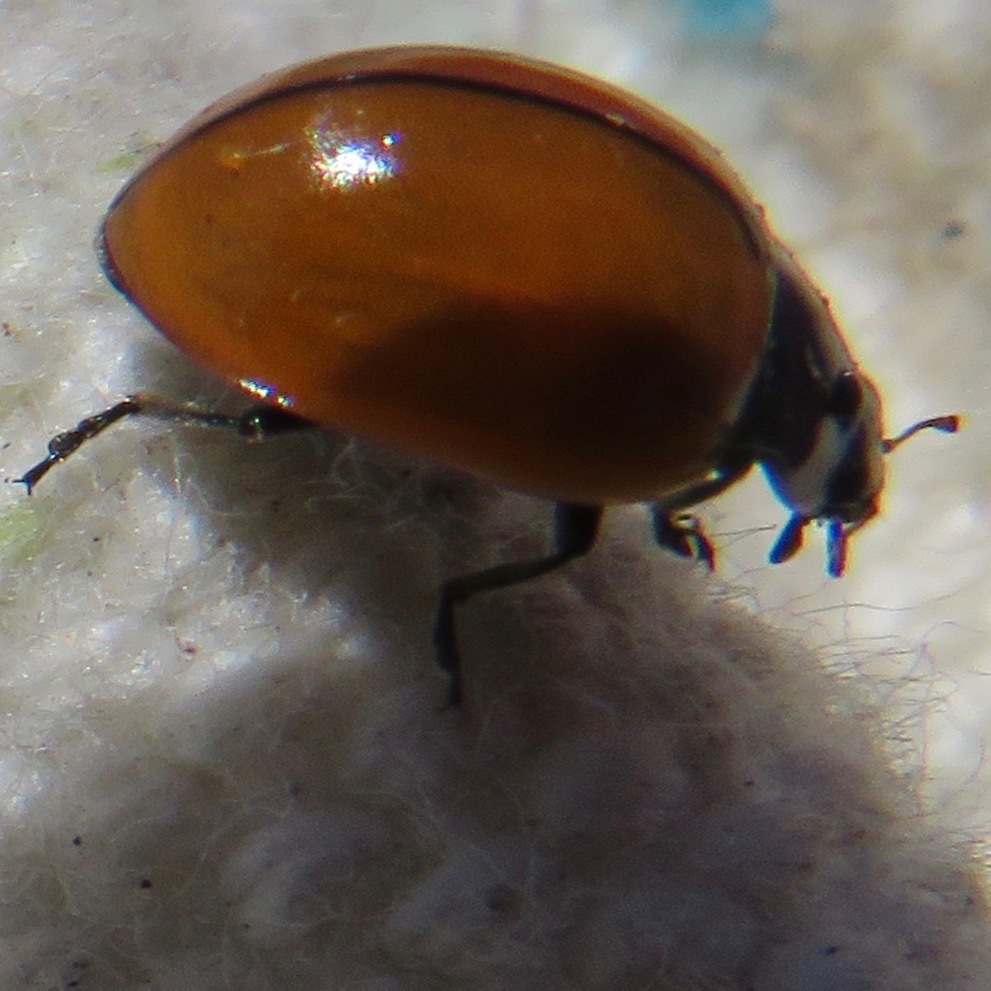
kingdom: Animalia
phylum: Arthropoda
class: Insecta
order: Coleoptera
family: Coccinellidae
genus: Coccinella
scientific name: Coccinella californica
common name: Lady beetle
